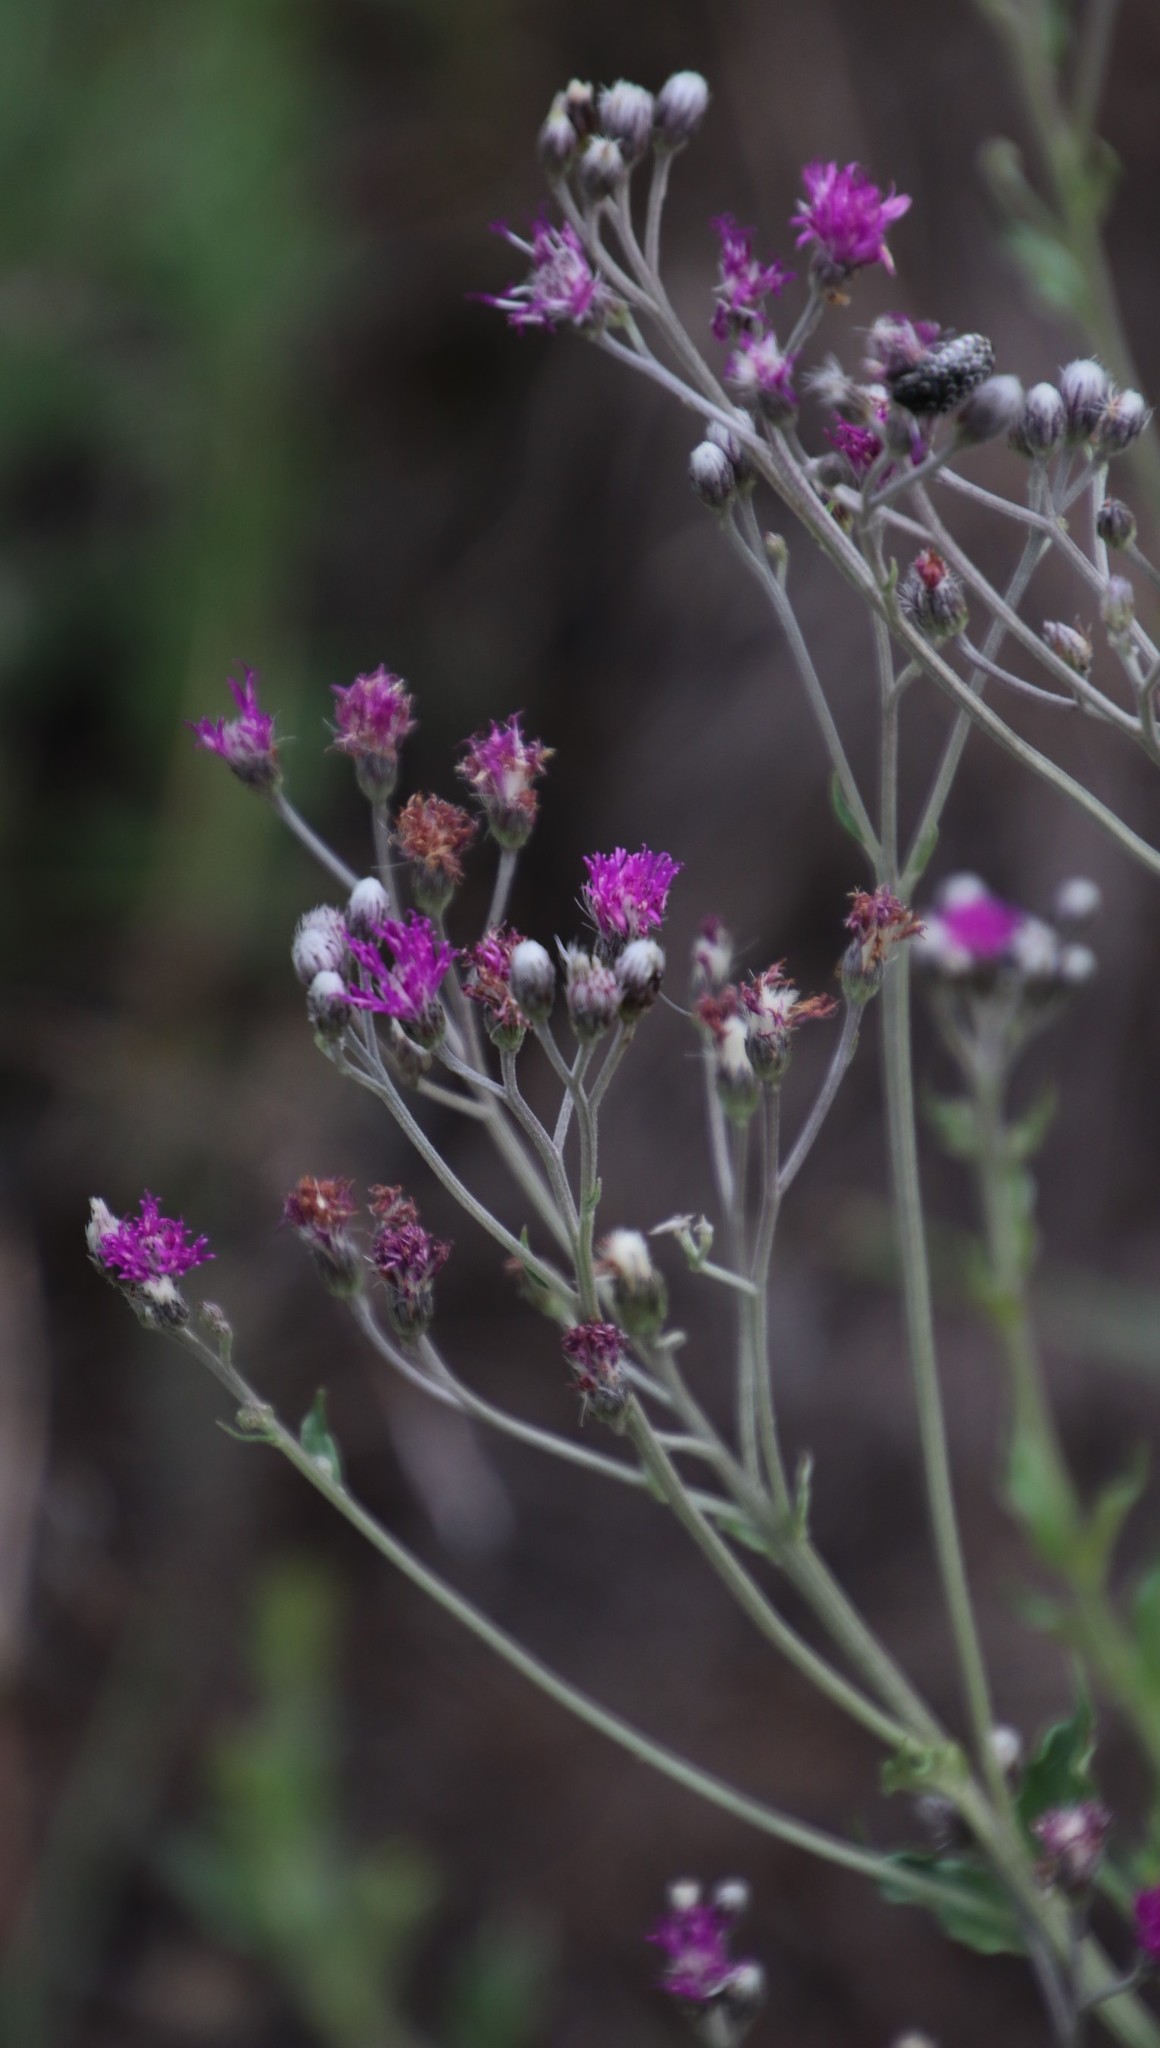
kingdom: Plantae
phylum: Tracheophyta
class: Magnoliopsida
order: Asterales
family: Asteraceae
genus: Hilliardiella
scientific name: Hilliardiella oligocephala
